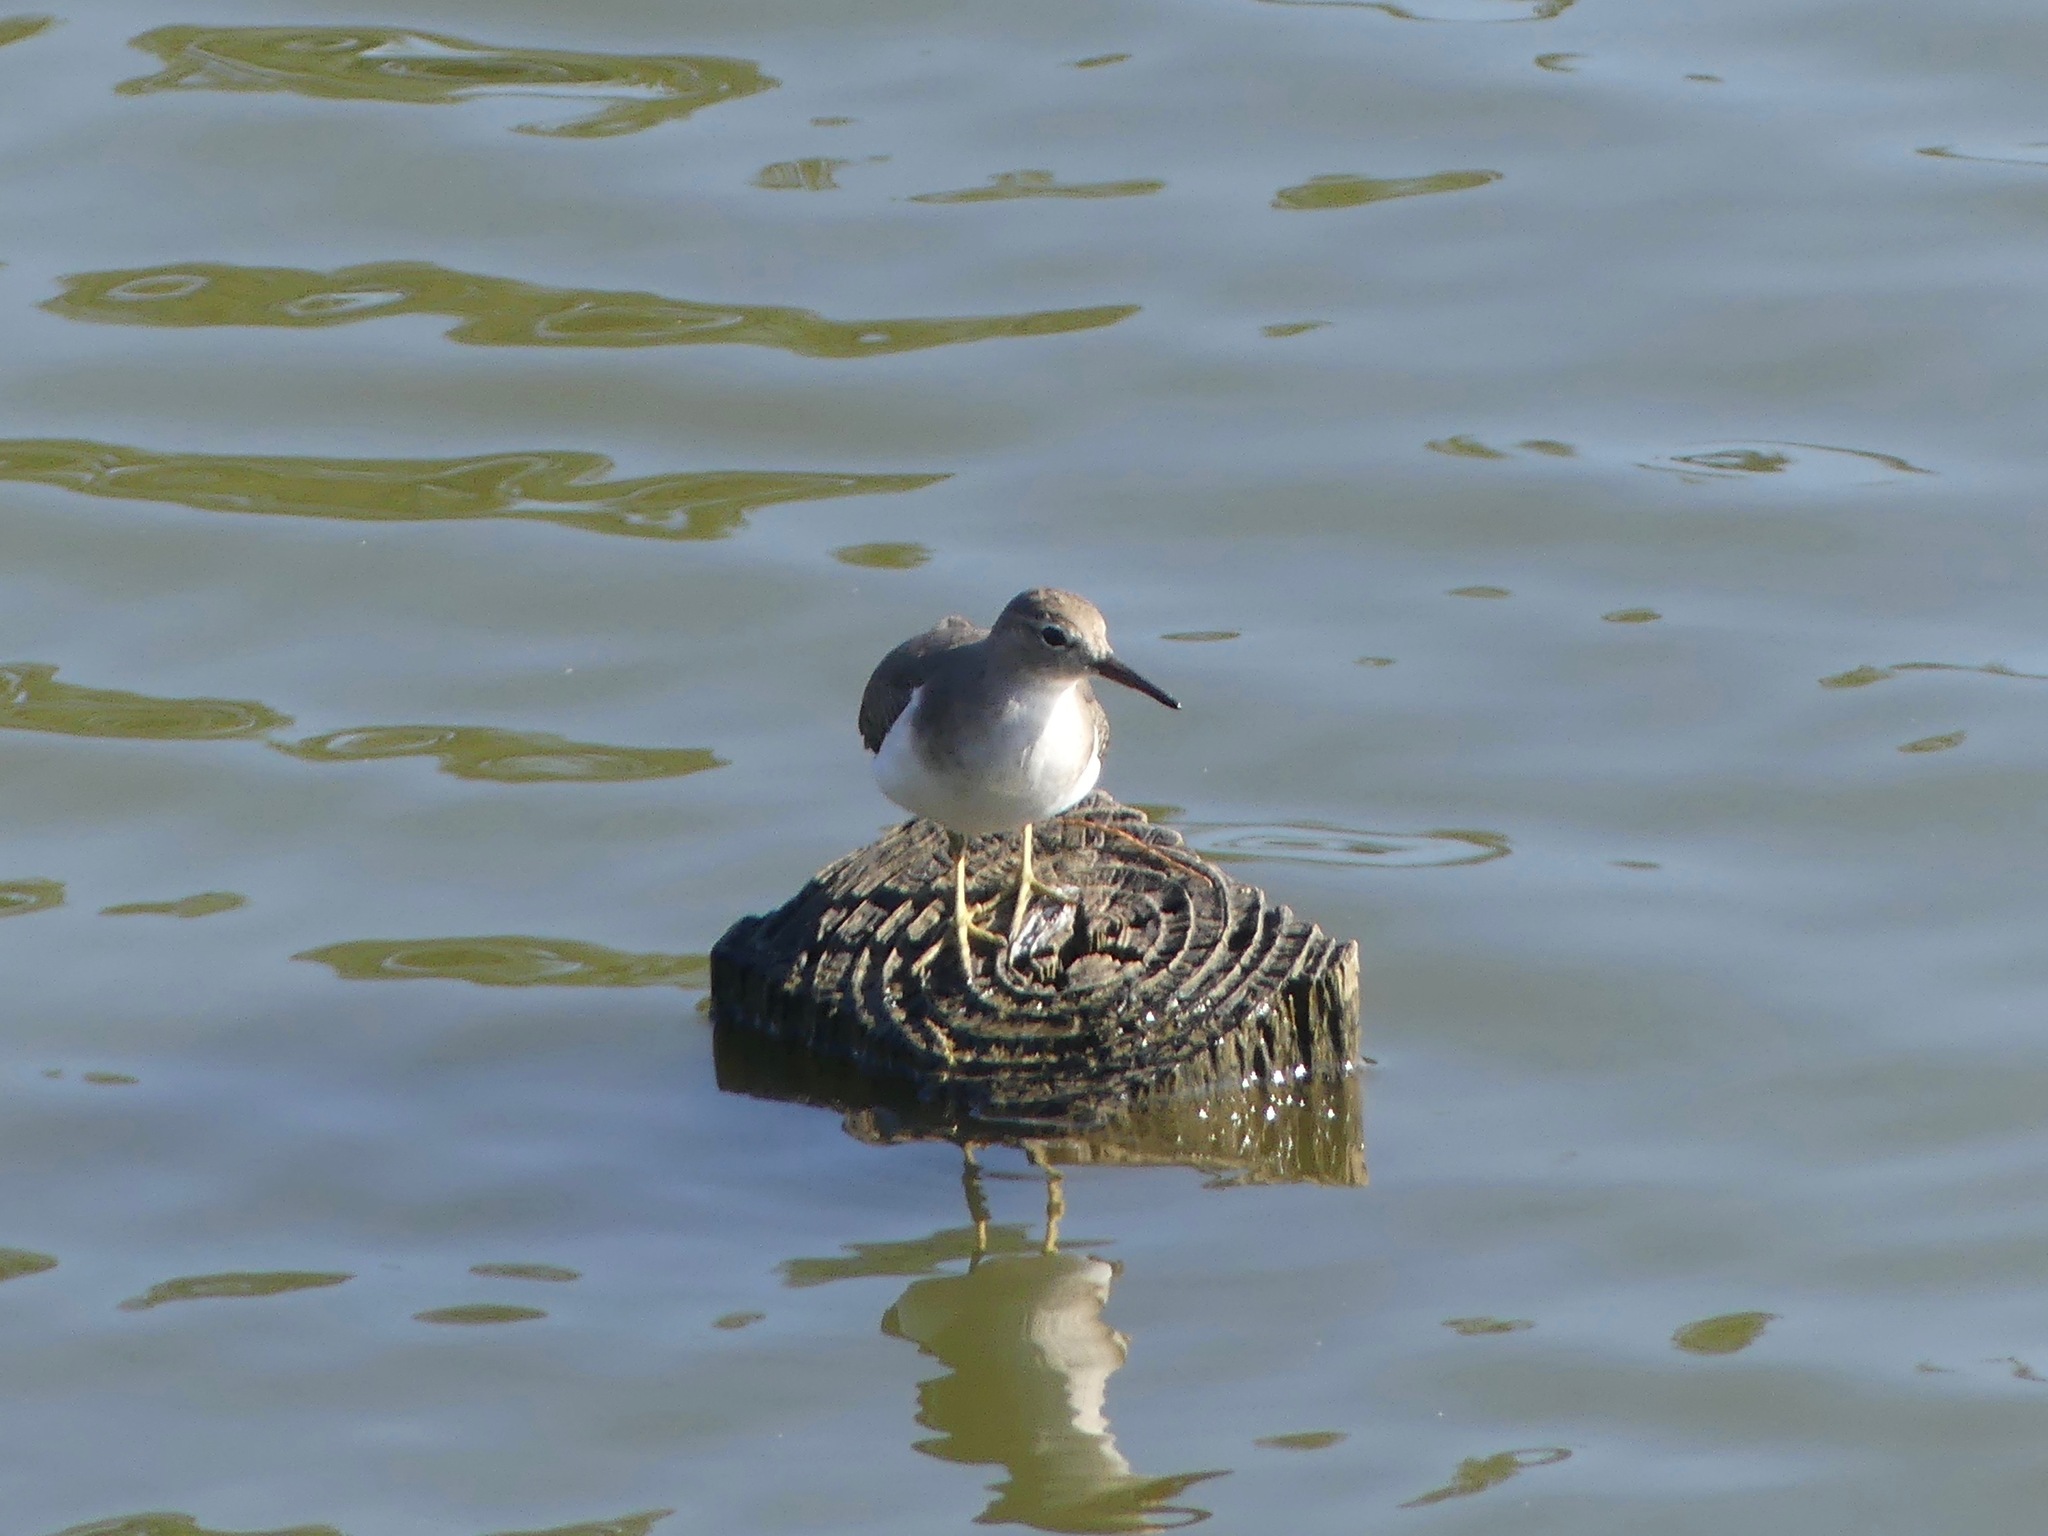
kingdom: Animalia
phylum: Chordata
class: Aves
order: Charadriiformes
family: Scolopacidae
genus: Actitis
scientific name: Actitis macularius
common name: Spotted sandpiper
